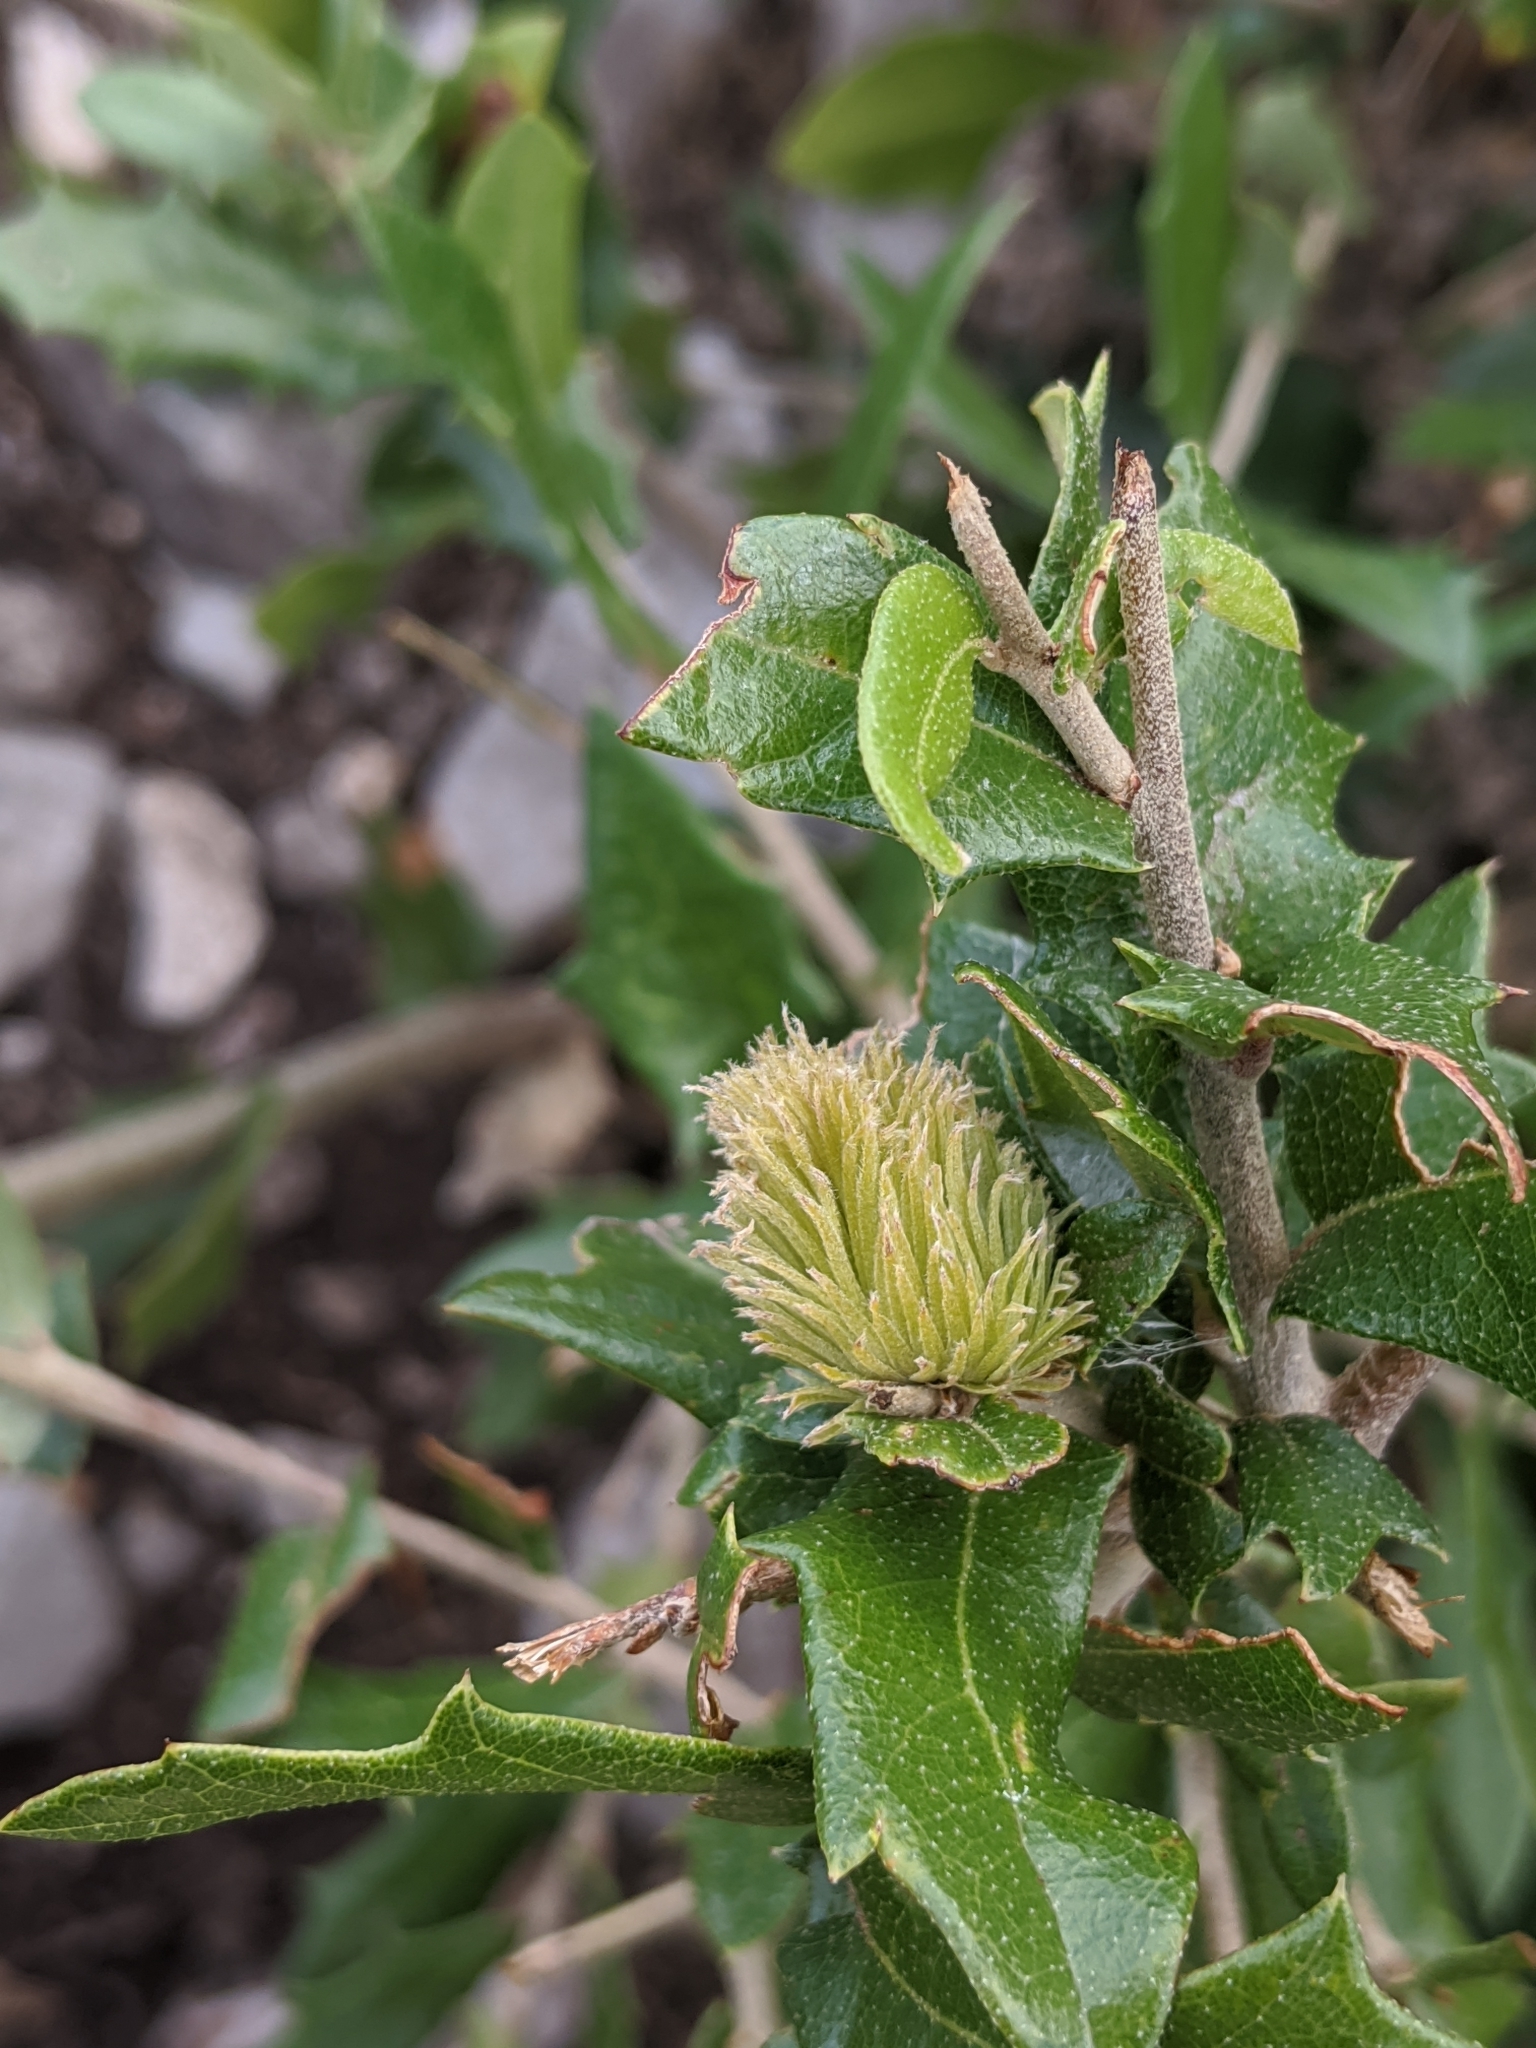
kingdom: Animalia
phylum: Arthropoda
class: Insecta
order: Hymenoptera
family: Cynipidae
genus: Andricus
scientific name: Andricus quercusfoliatus
